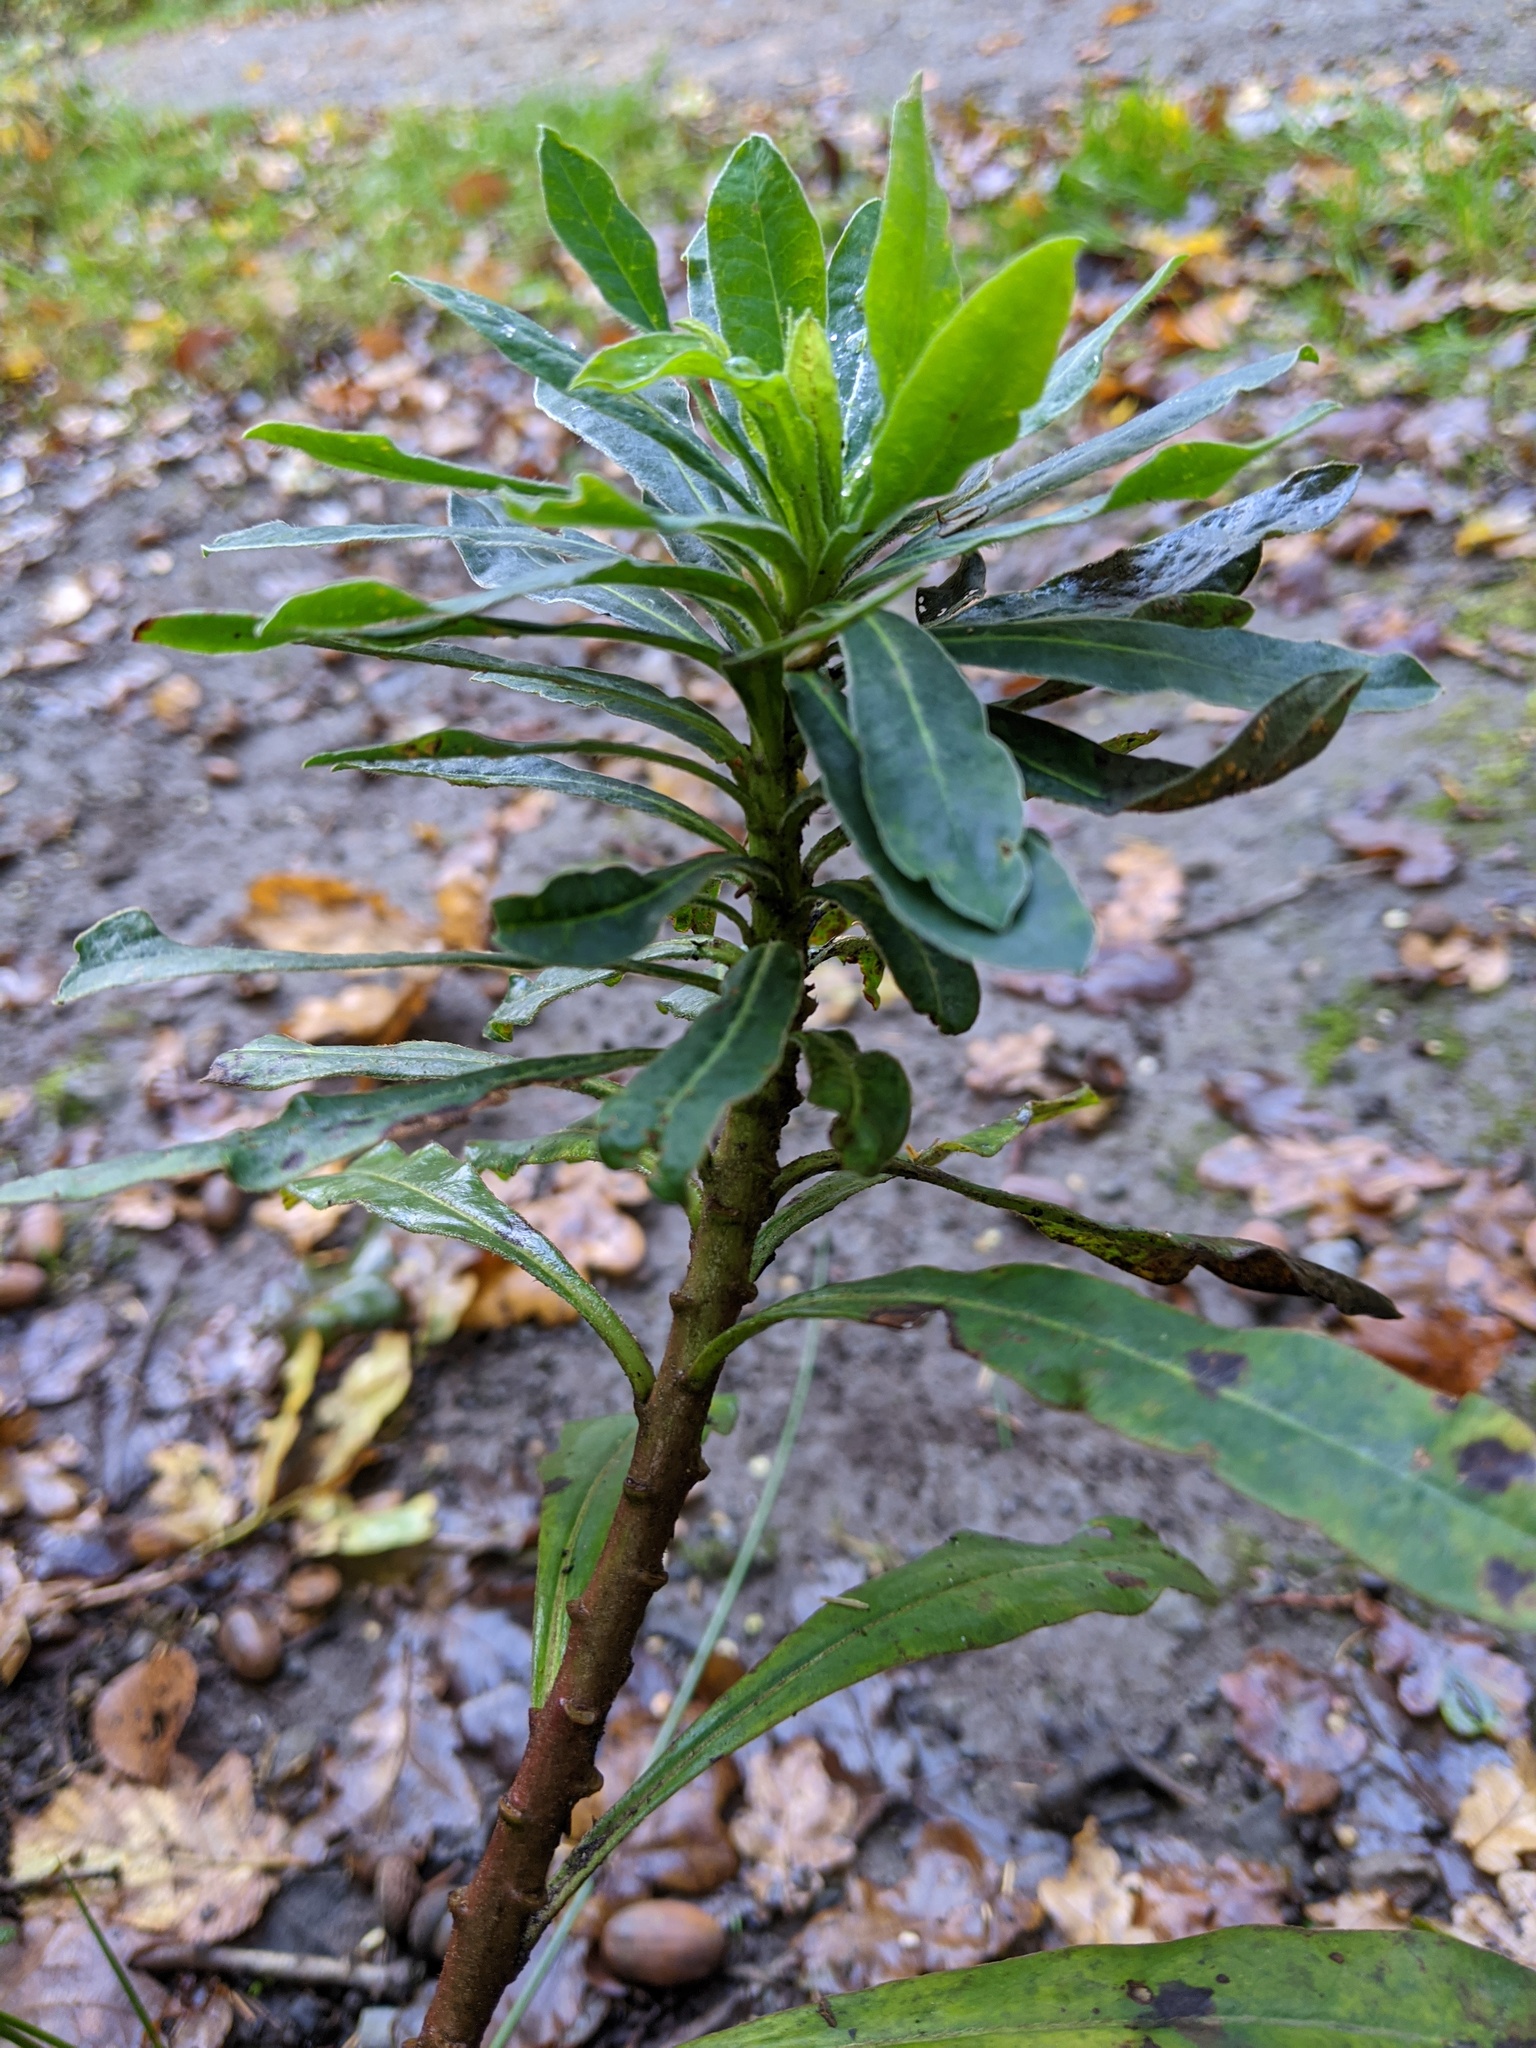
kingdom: Plantae
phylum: Tracheophyta
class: Magnoliopsida
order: Malpighiales
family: Euphorbiaceae
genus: Euphorbia
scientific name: Euphorbia amygdaloides
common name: Wood spurge
